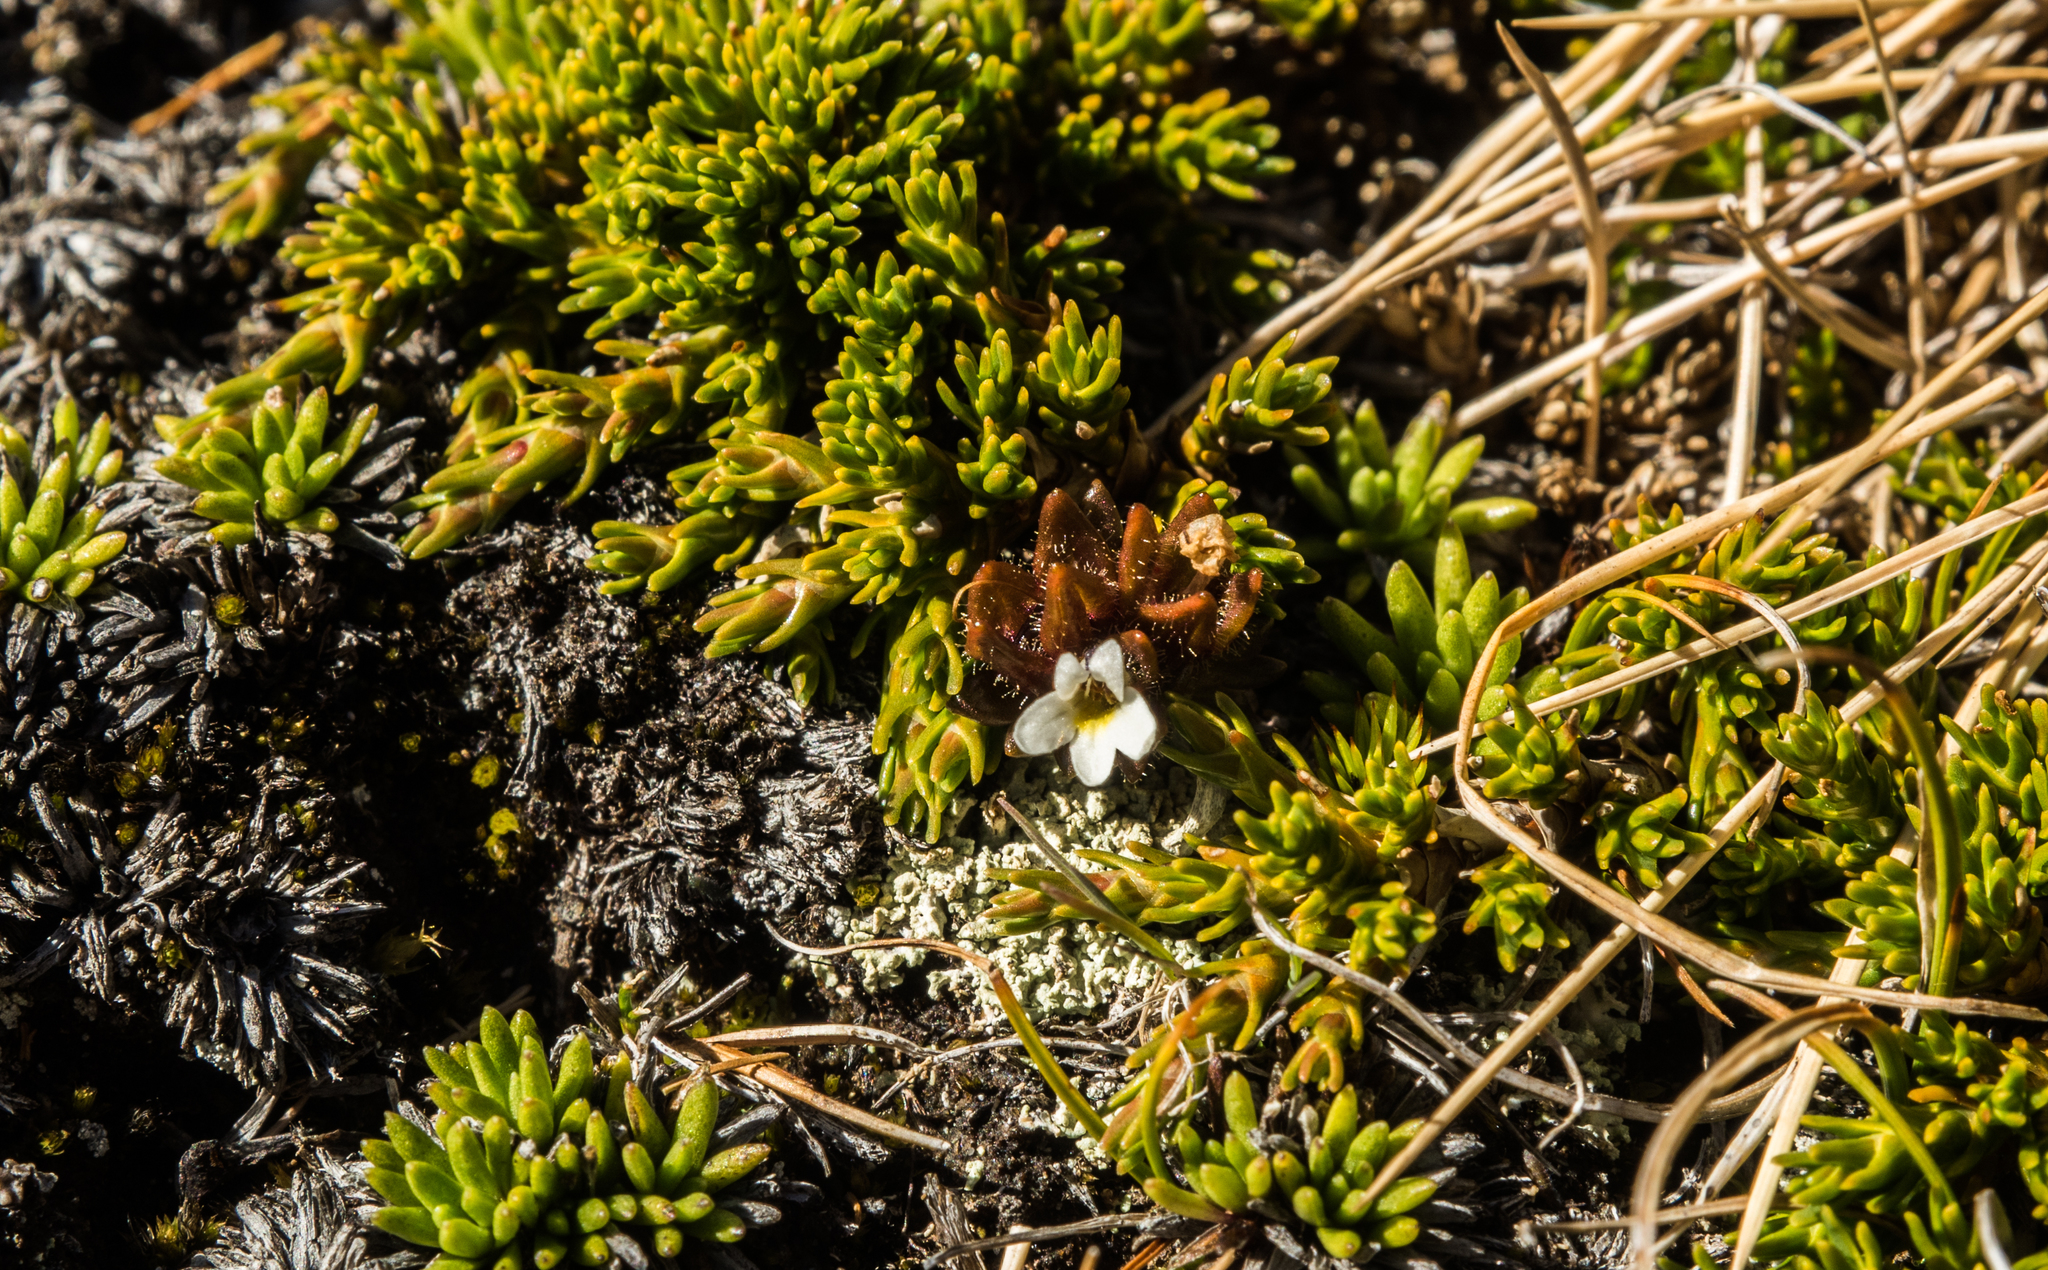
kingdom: Plantae
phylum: Tracheophyta
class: Magnoliopsida
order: Lamiales
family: Orobanchaceae
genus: Euphrasia
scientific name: Euphrasia zelandica
